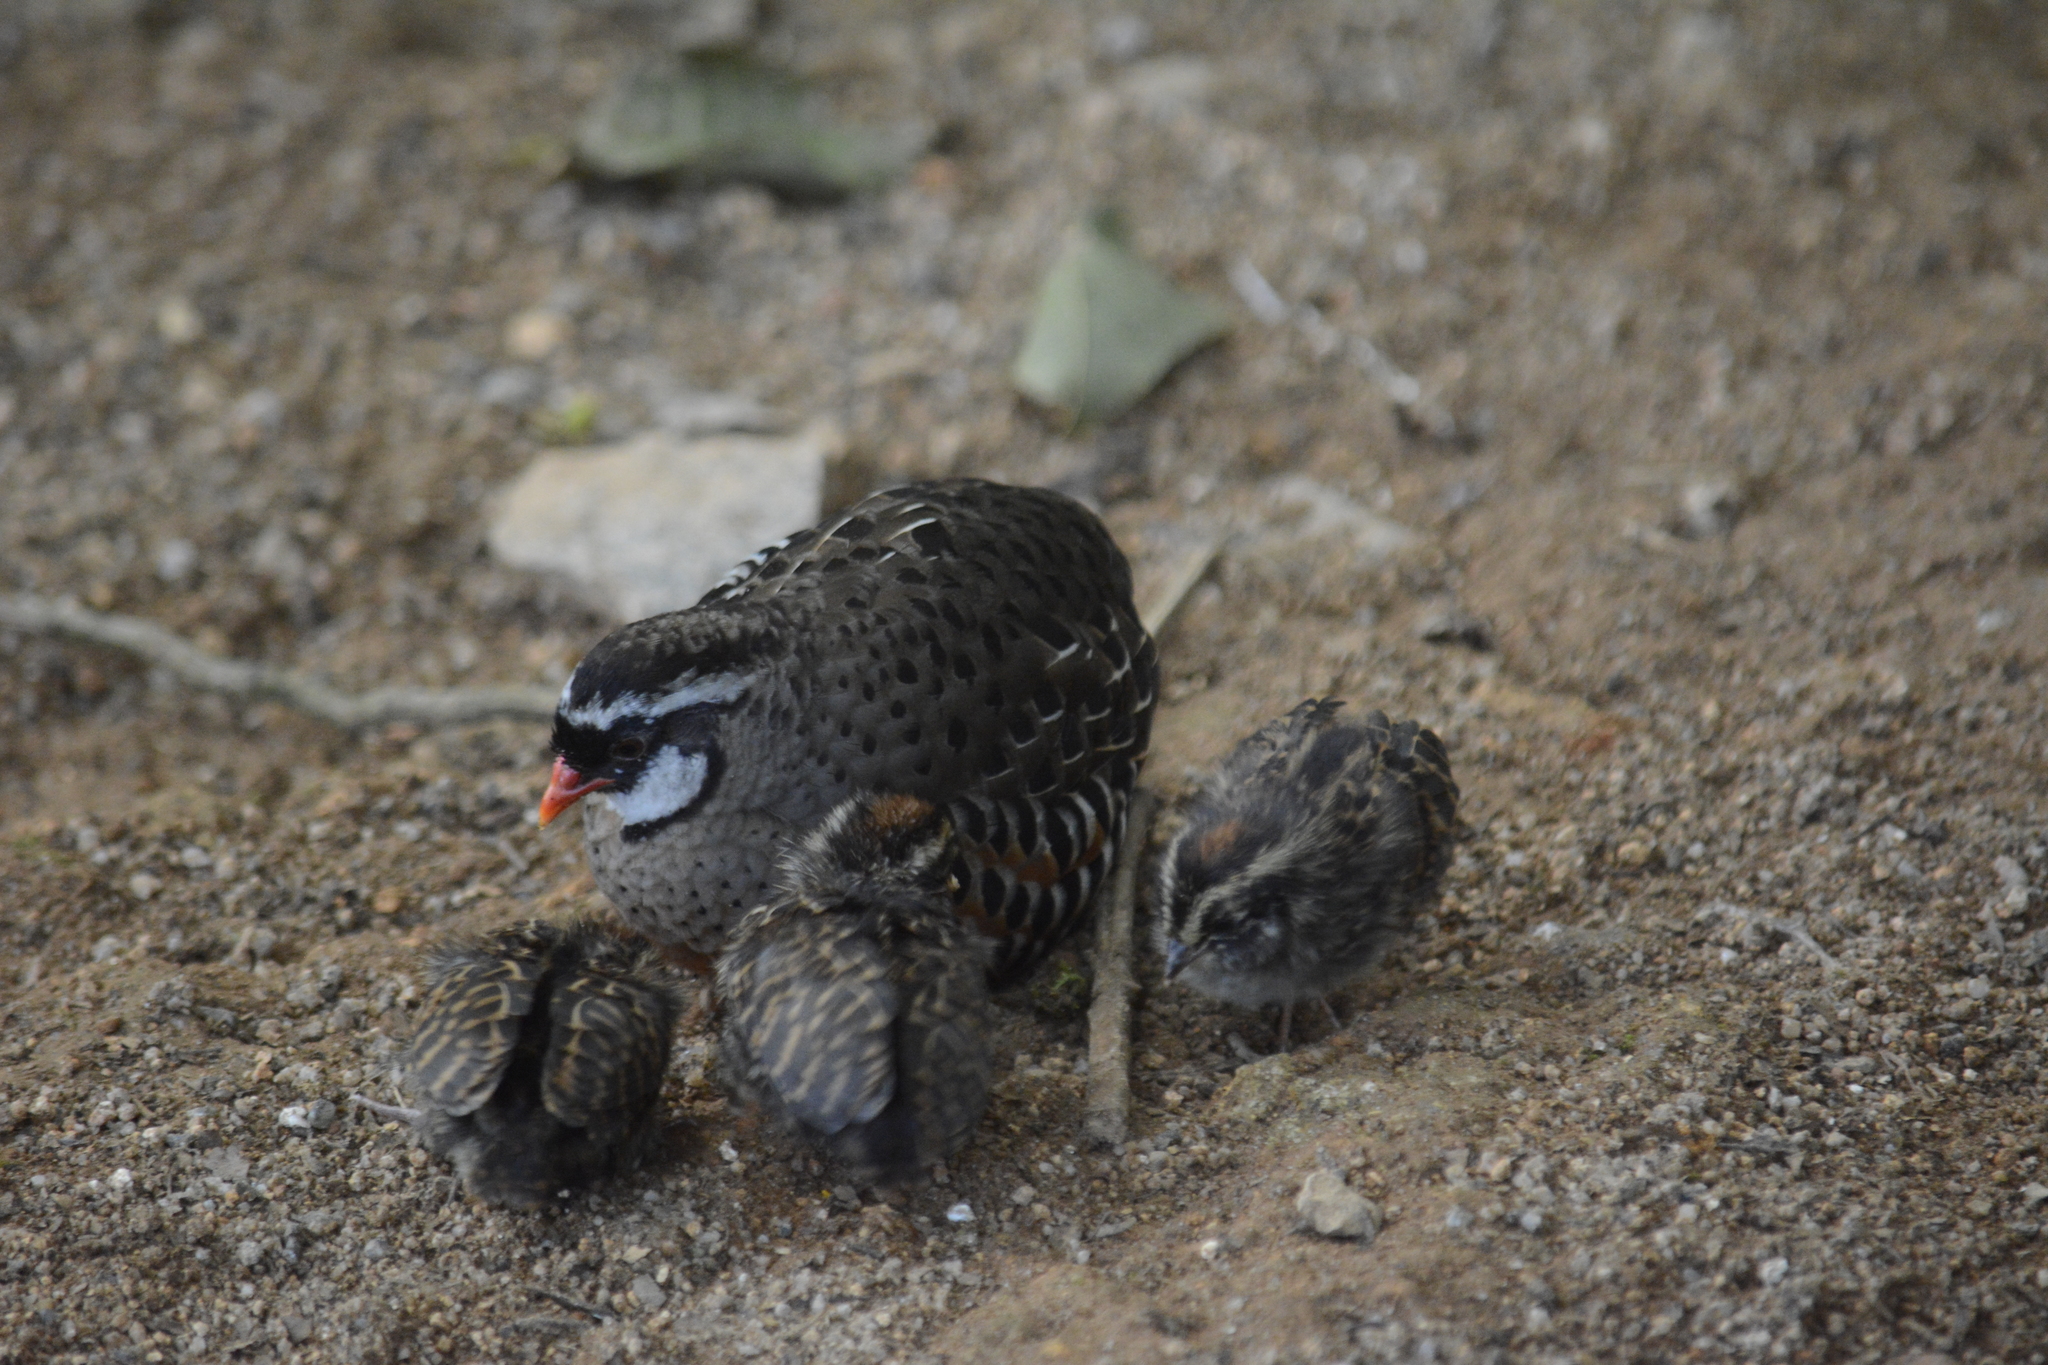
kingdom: Animalia
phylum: Chordata
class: Aves
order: Galliformes
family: Phasianidae
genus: Perdicula
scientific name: Perdicula erythrorhyncha
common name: Painted bush-quail
